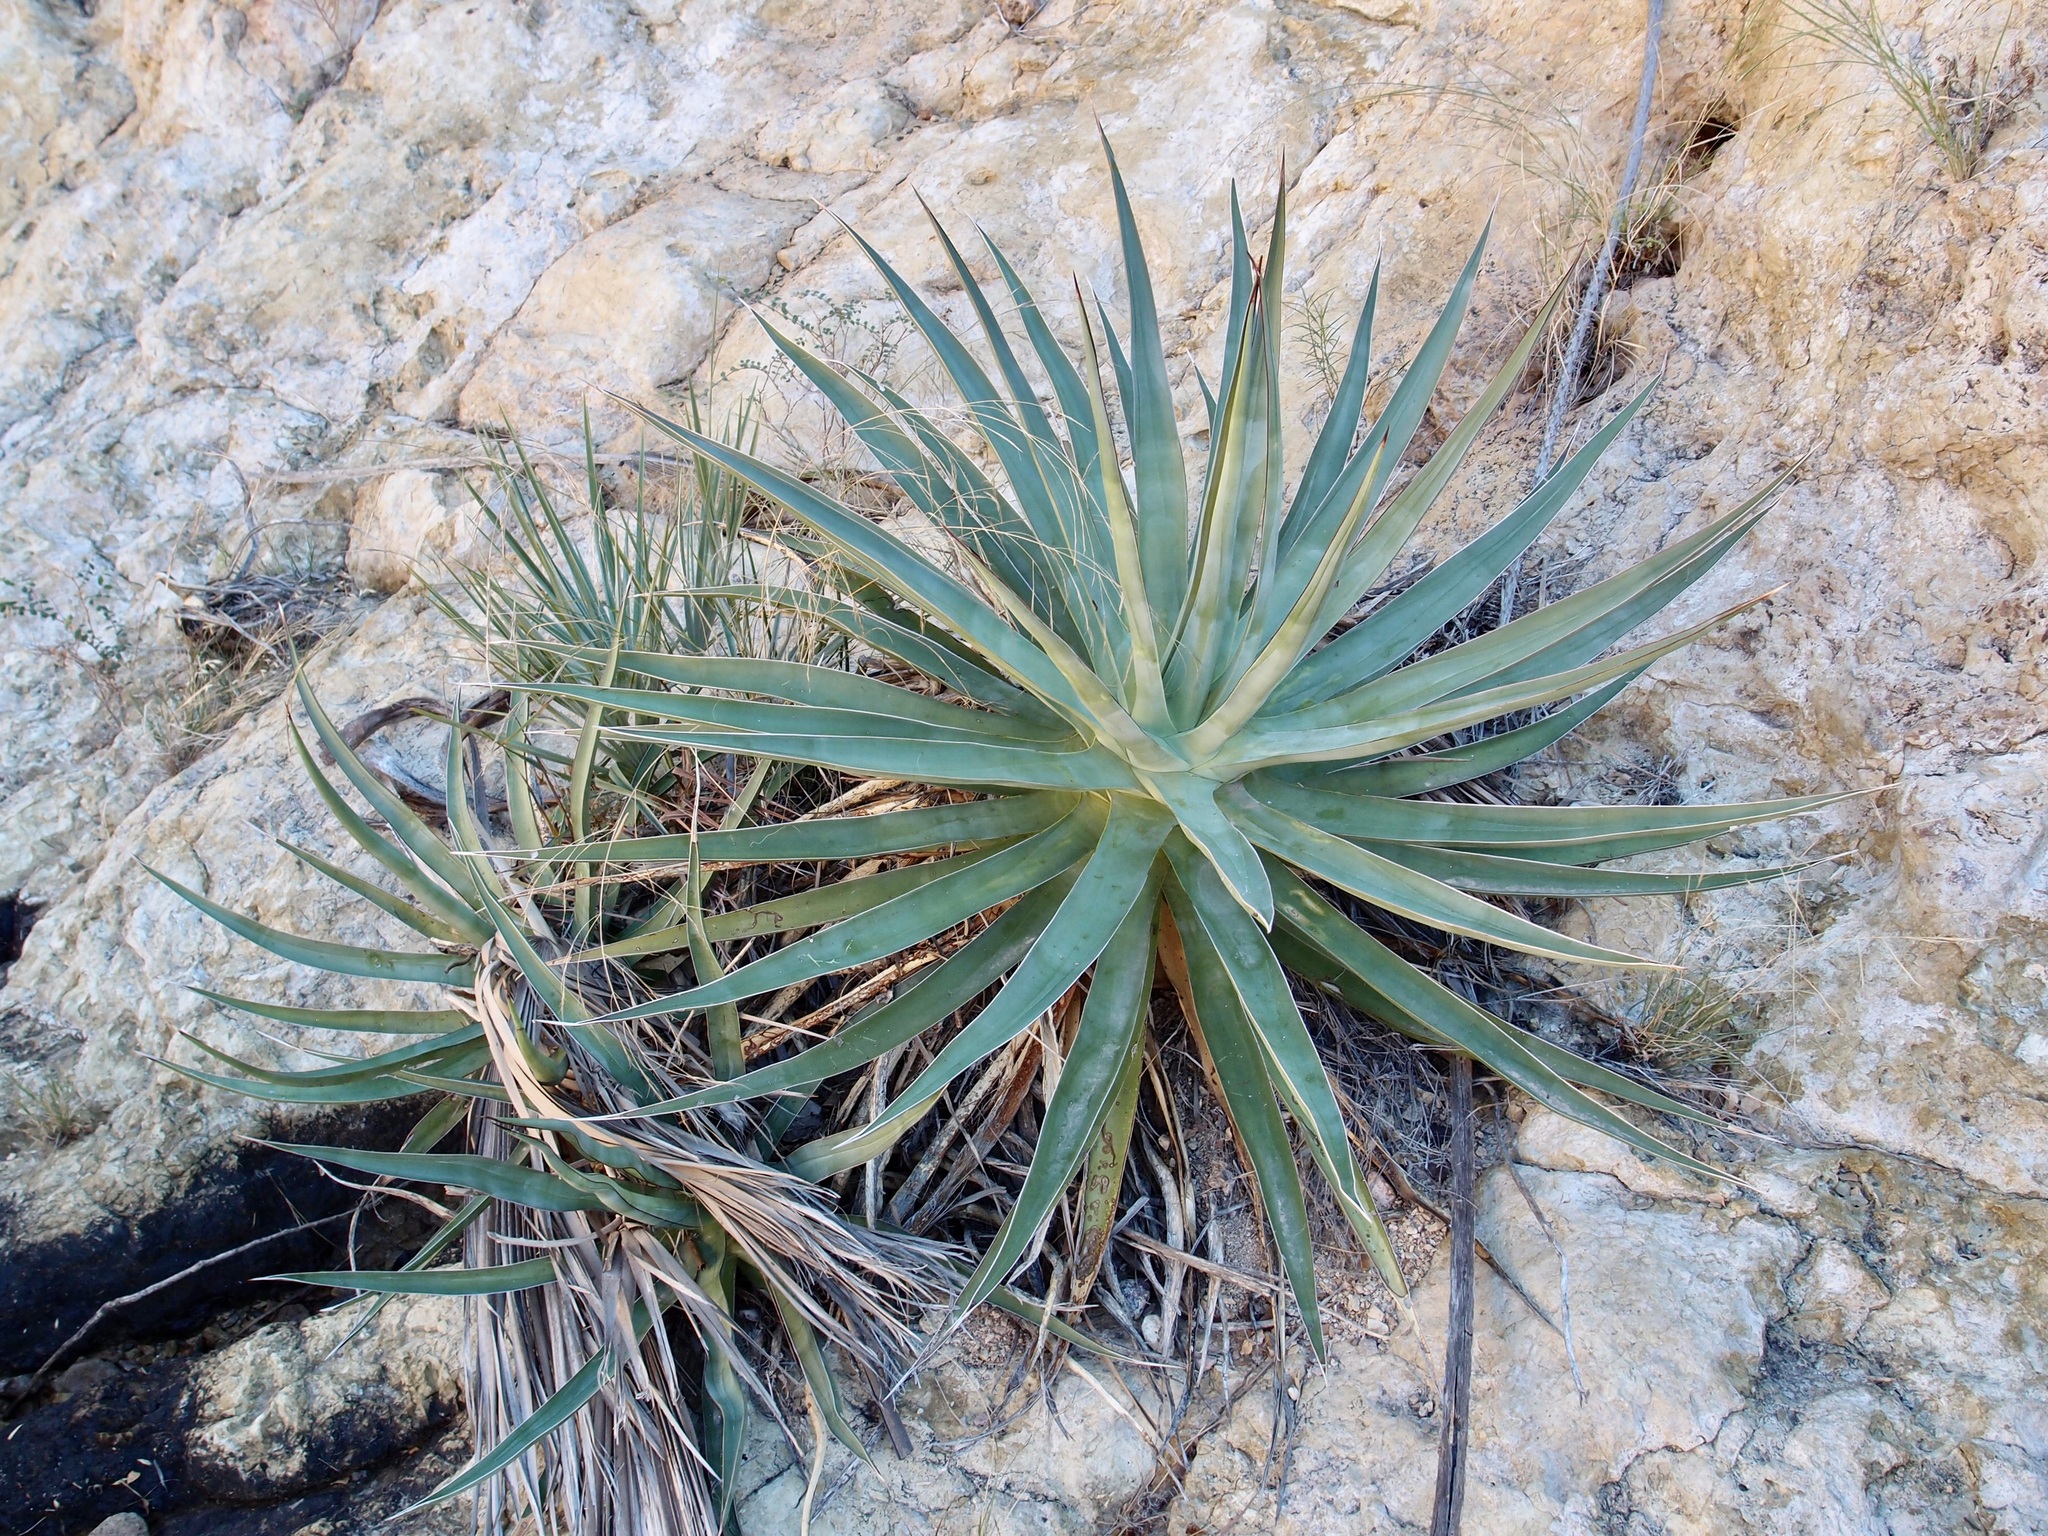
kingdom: Plantae
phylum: Tracheophyta
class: Liliopsida
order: Asparagales
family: Asparagaceae
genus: Agave
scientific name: Agave chrysoglossa
